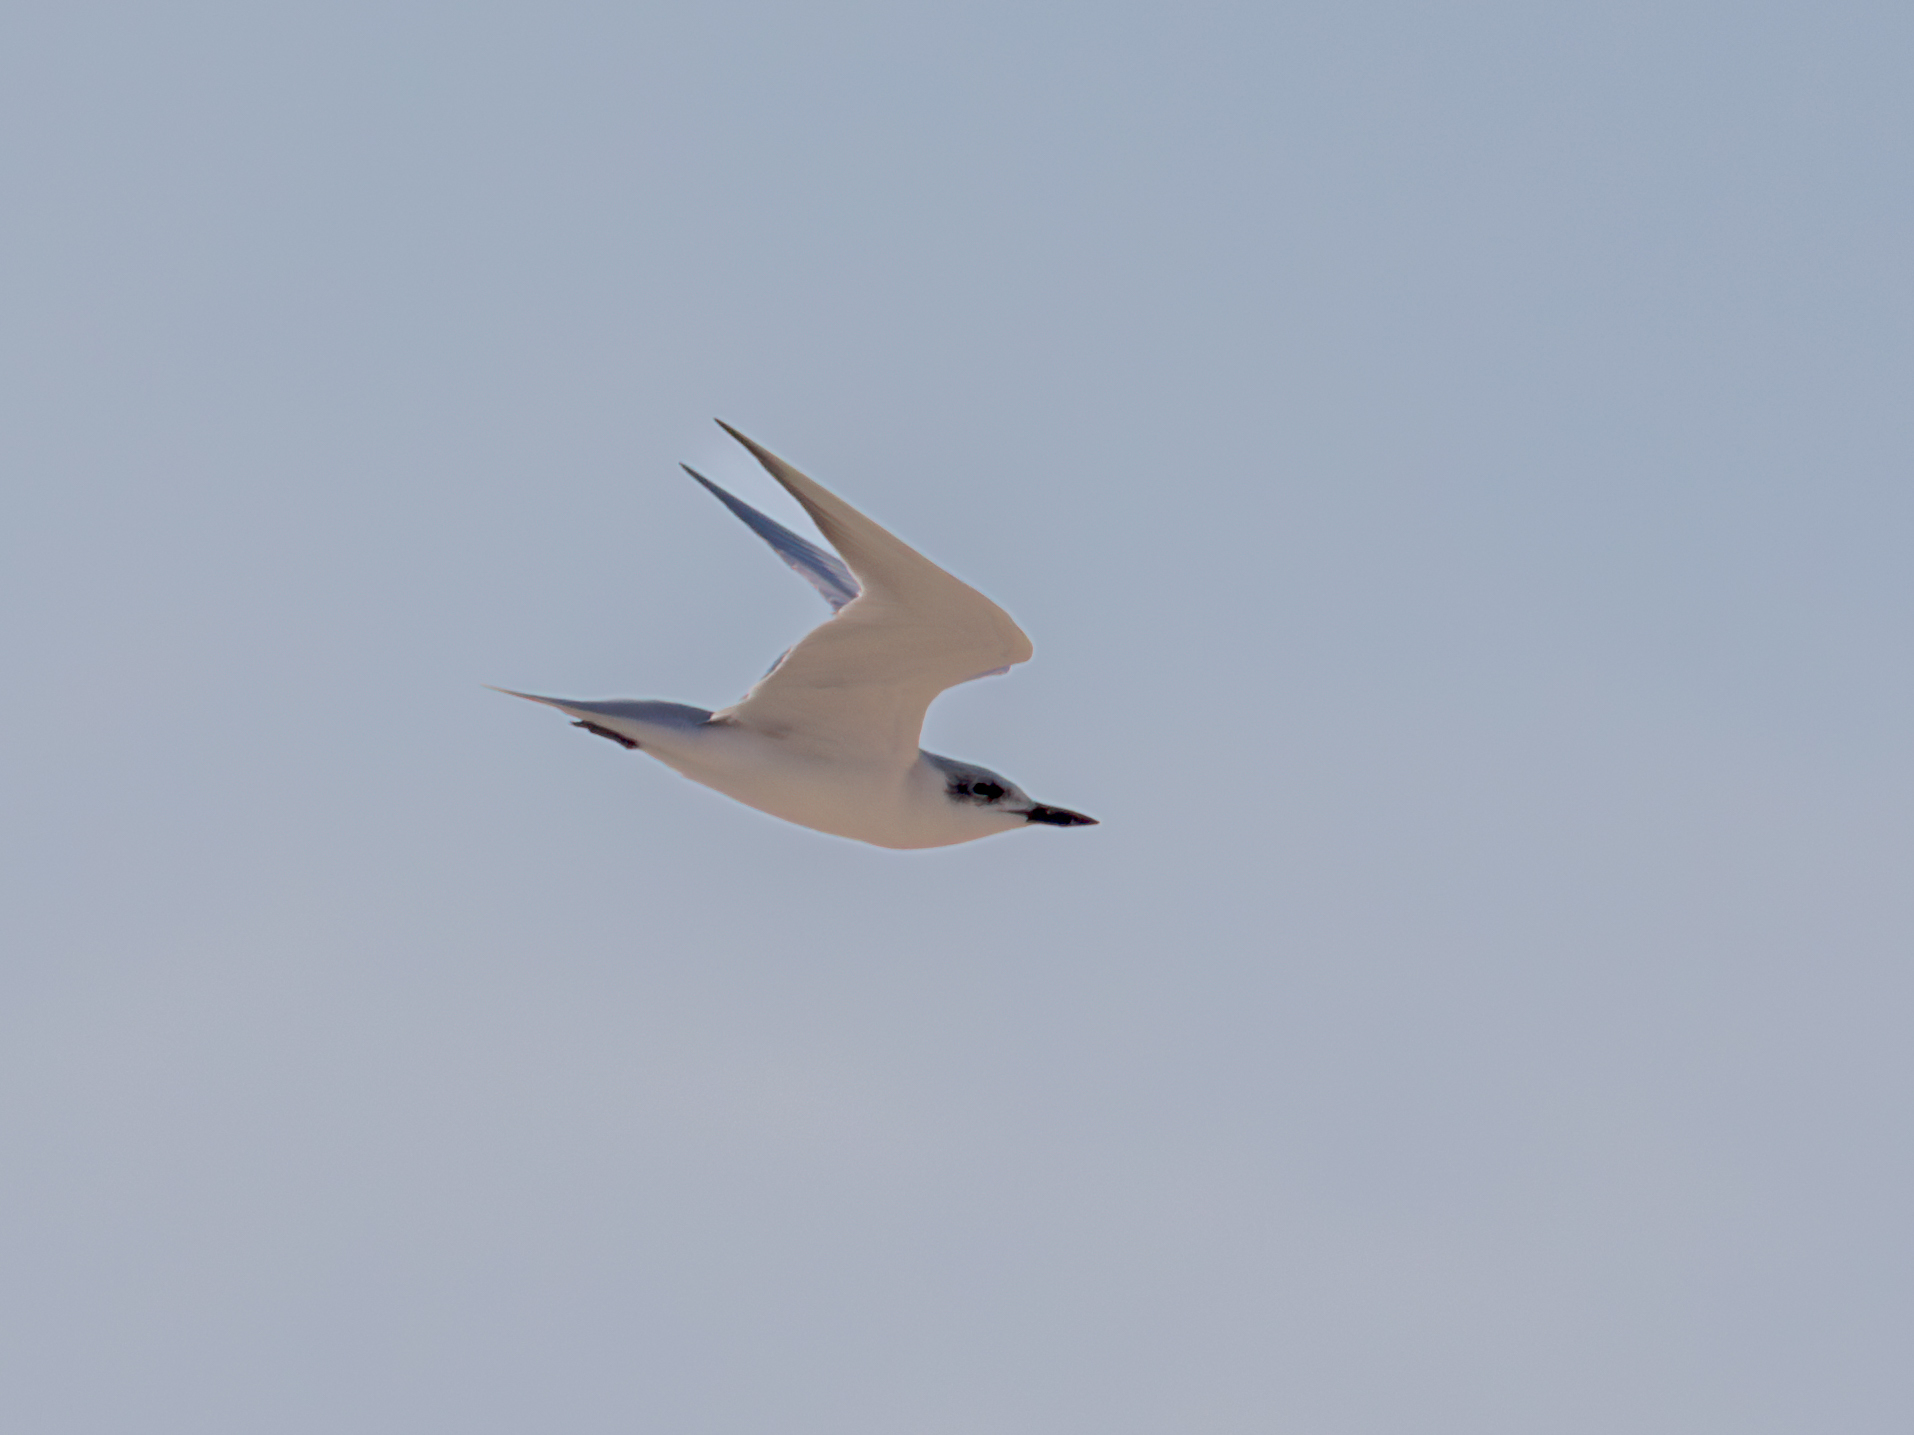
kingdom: Animalia
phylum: Chordata
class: Aves
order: Charadriiformes
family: Laridae
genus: Gelochelidon
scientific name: Gelochelidon nilotica
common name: Gull-billed tern
